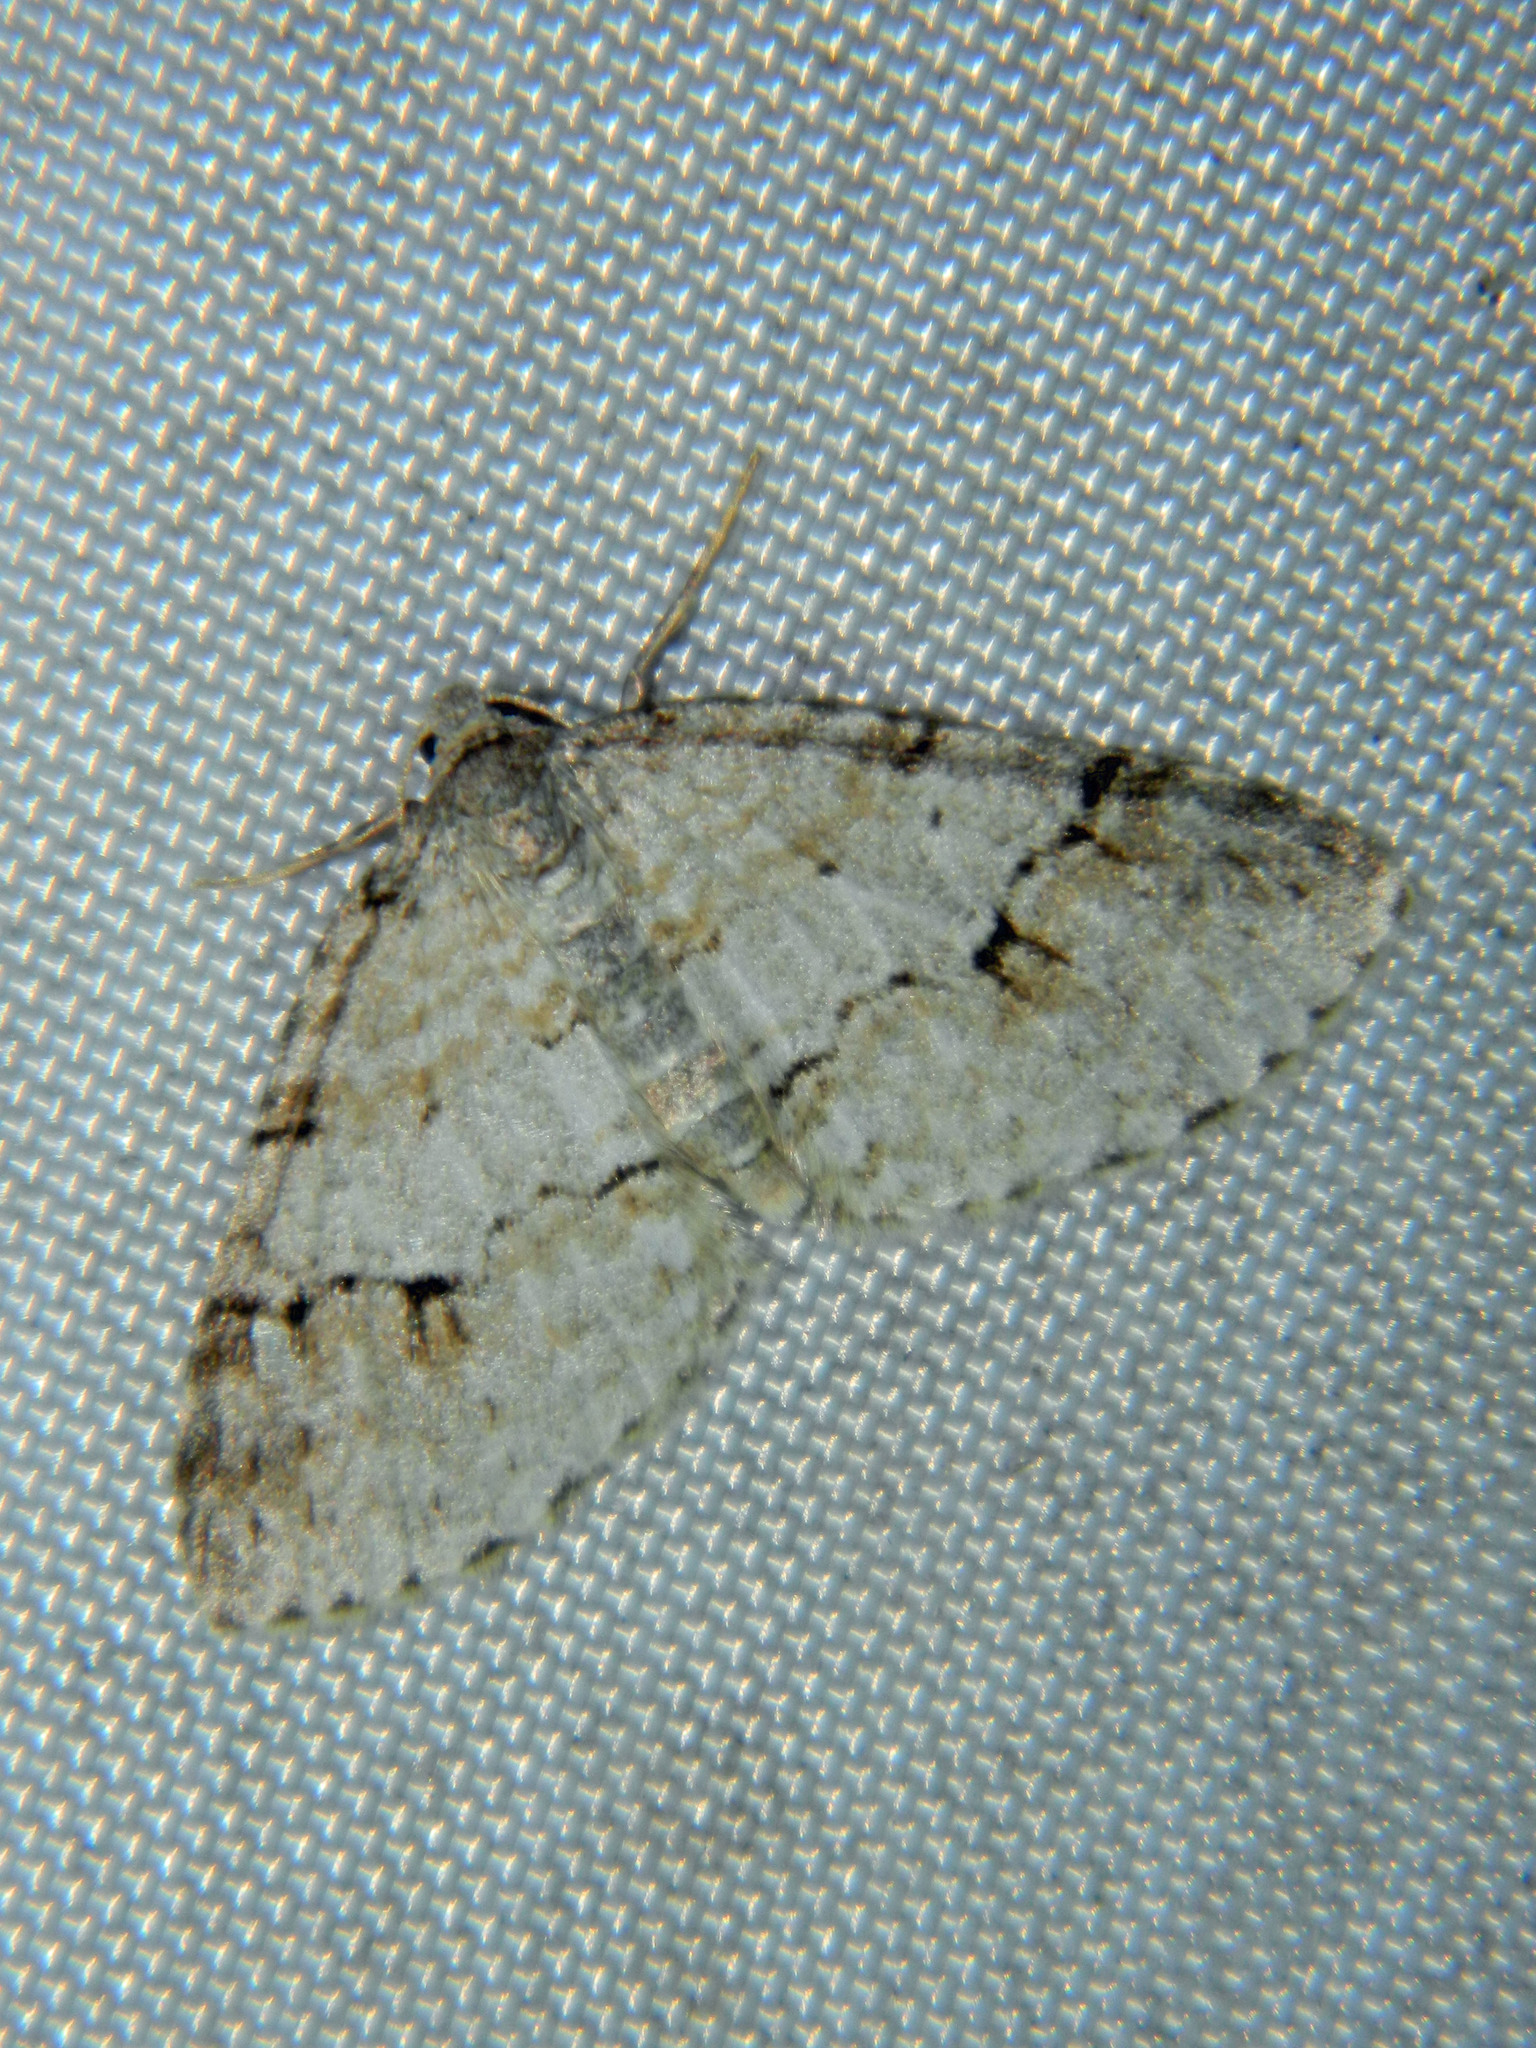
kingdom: Animalia
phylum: Arthropoda
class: Insecta
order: Lepidoptera
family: Geometridae
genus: Venusia
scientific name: Venusia cambrica
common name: Welsh wave
